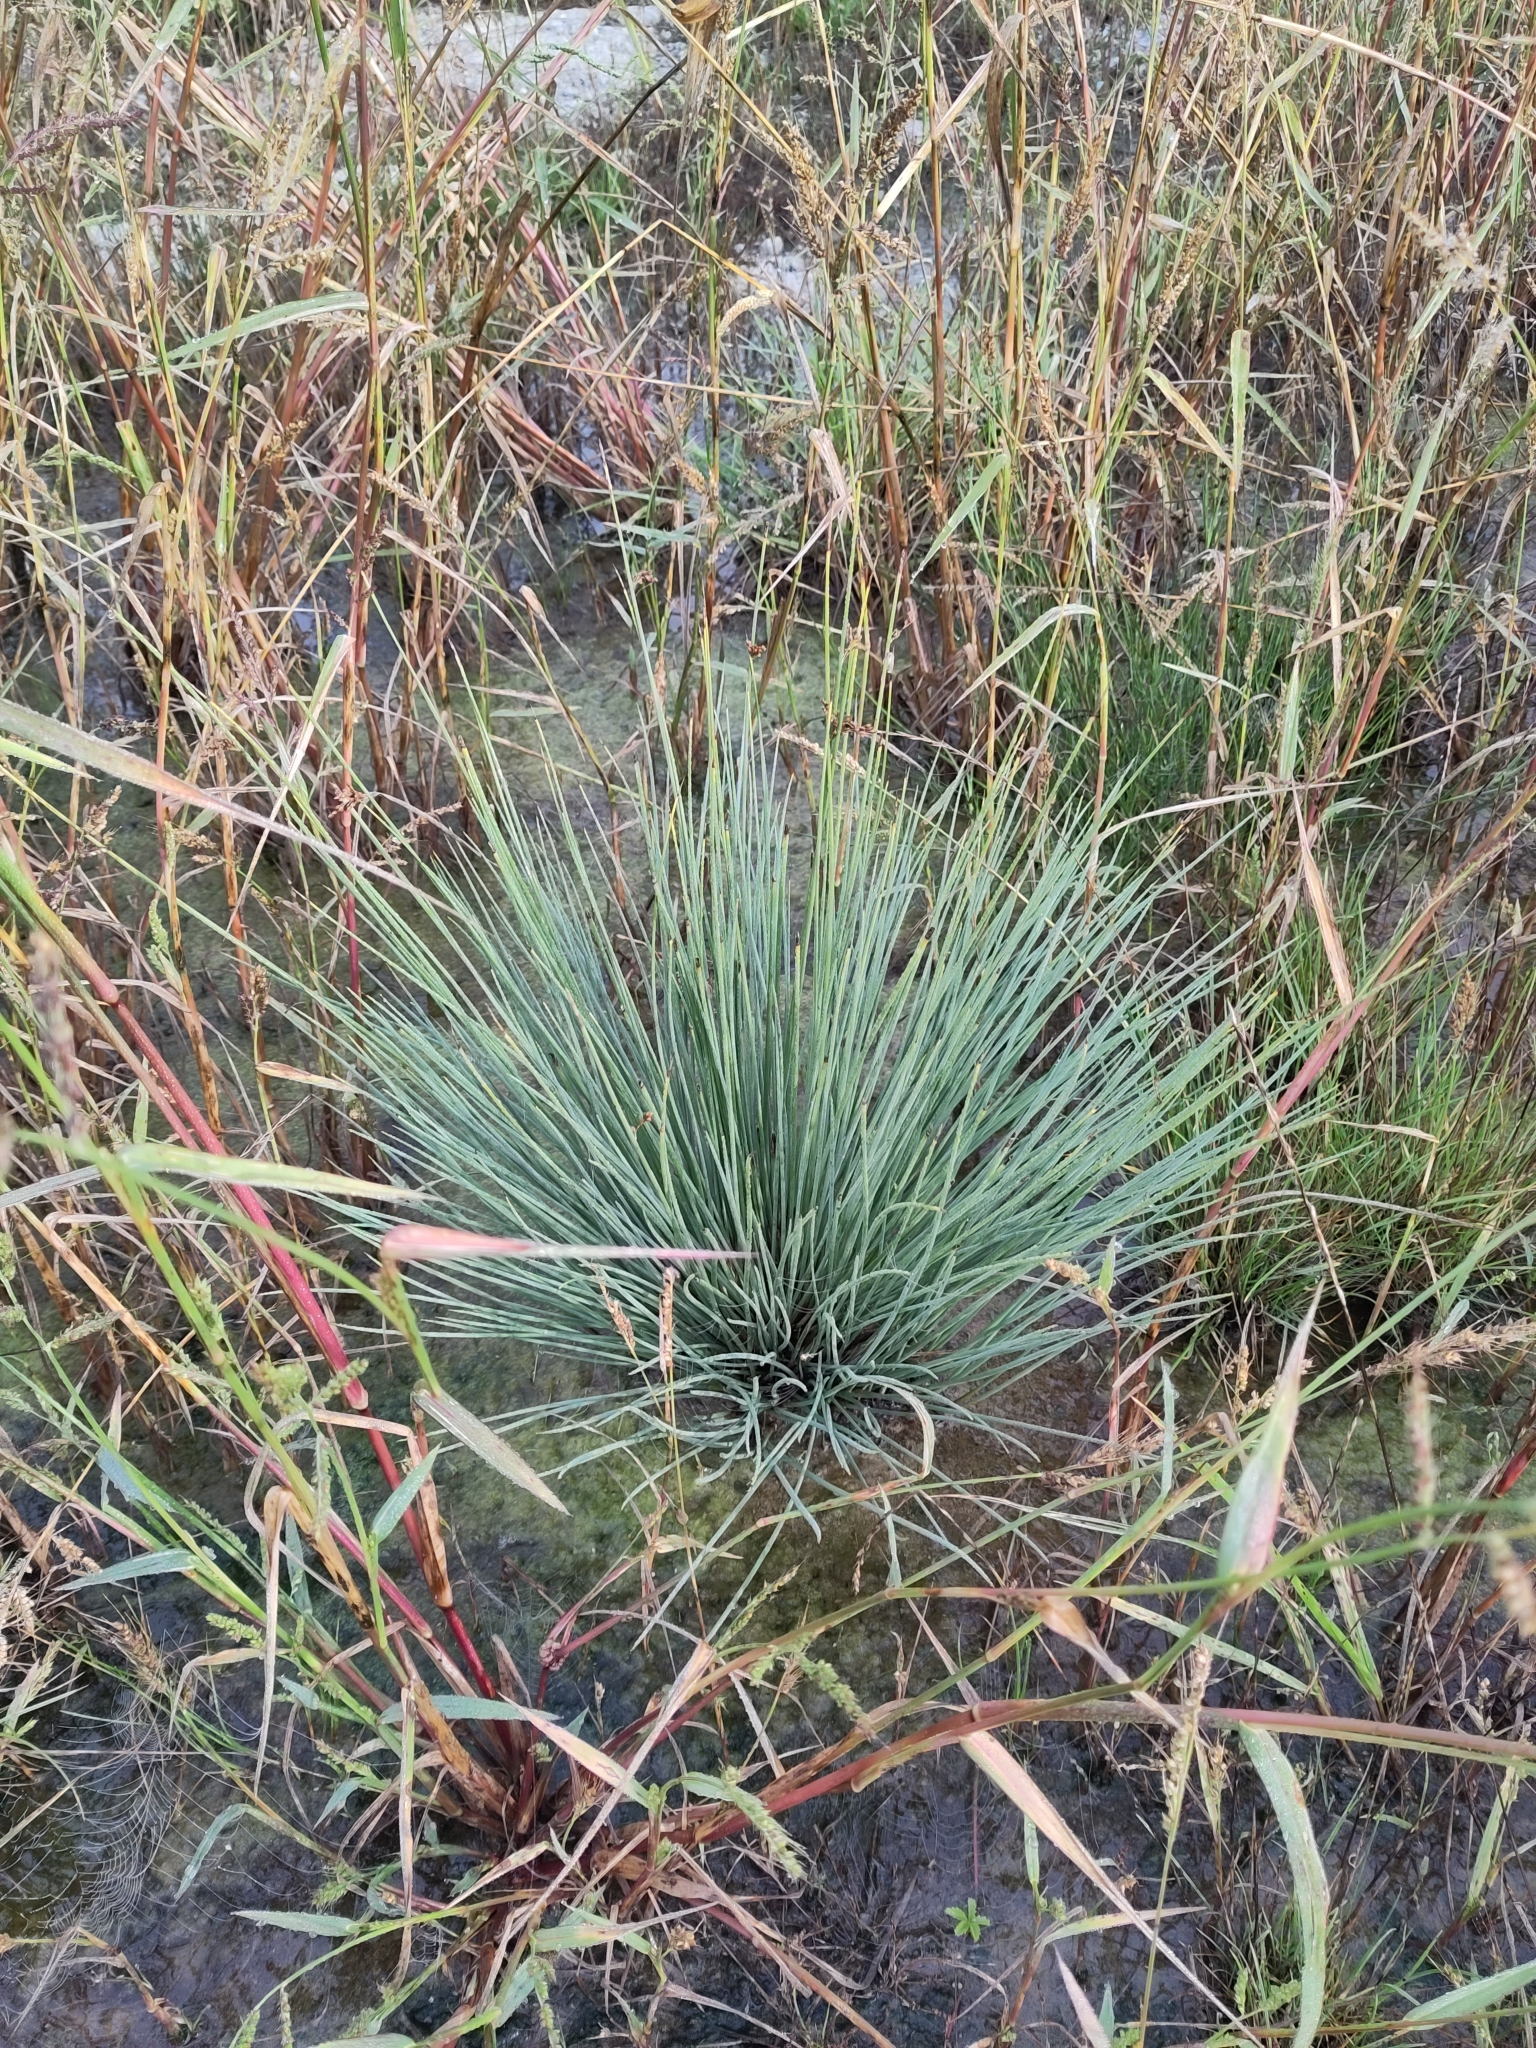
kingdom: Plantae
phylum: Tracheophyta
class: Liliopsida
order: Poales
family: Juncaceae
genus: Juncus
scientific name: Juncus inflexus
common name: Hard rush
